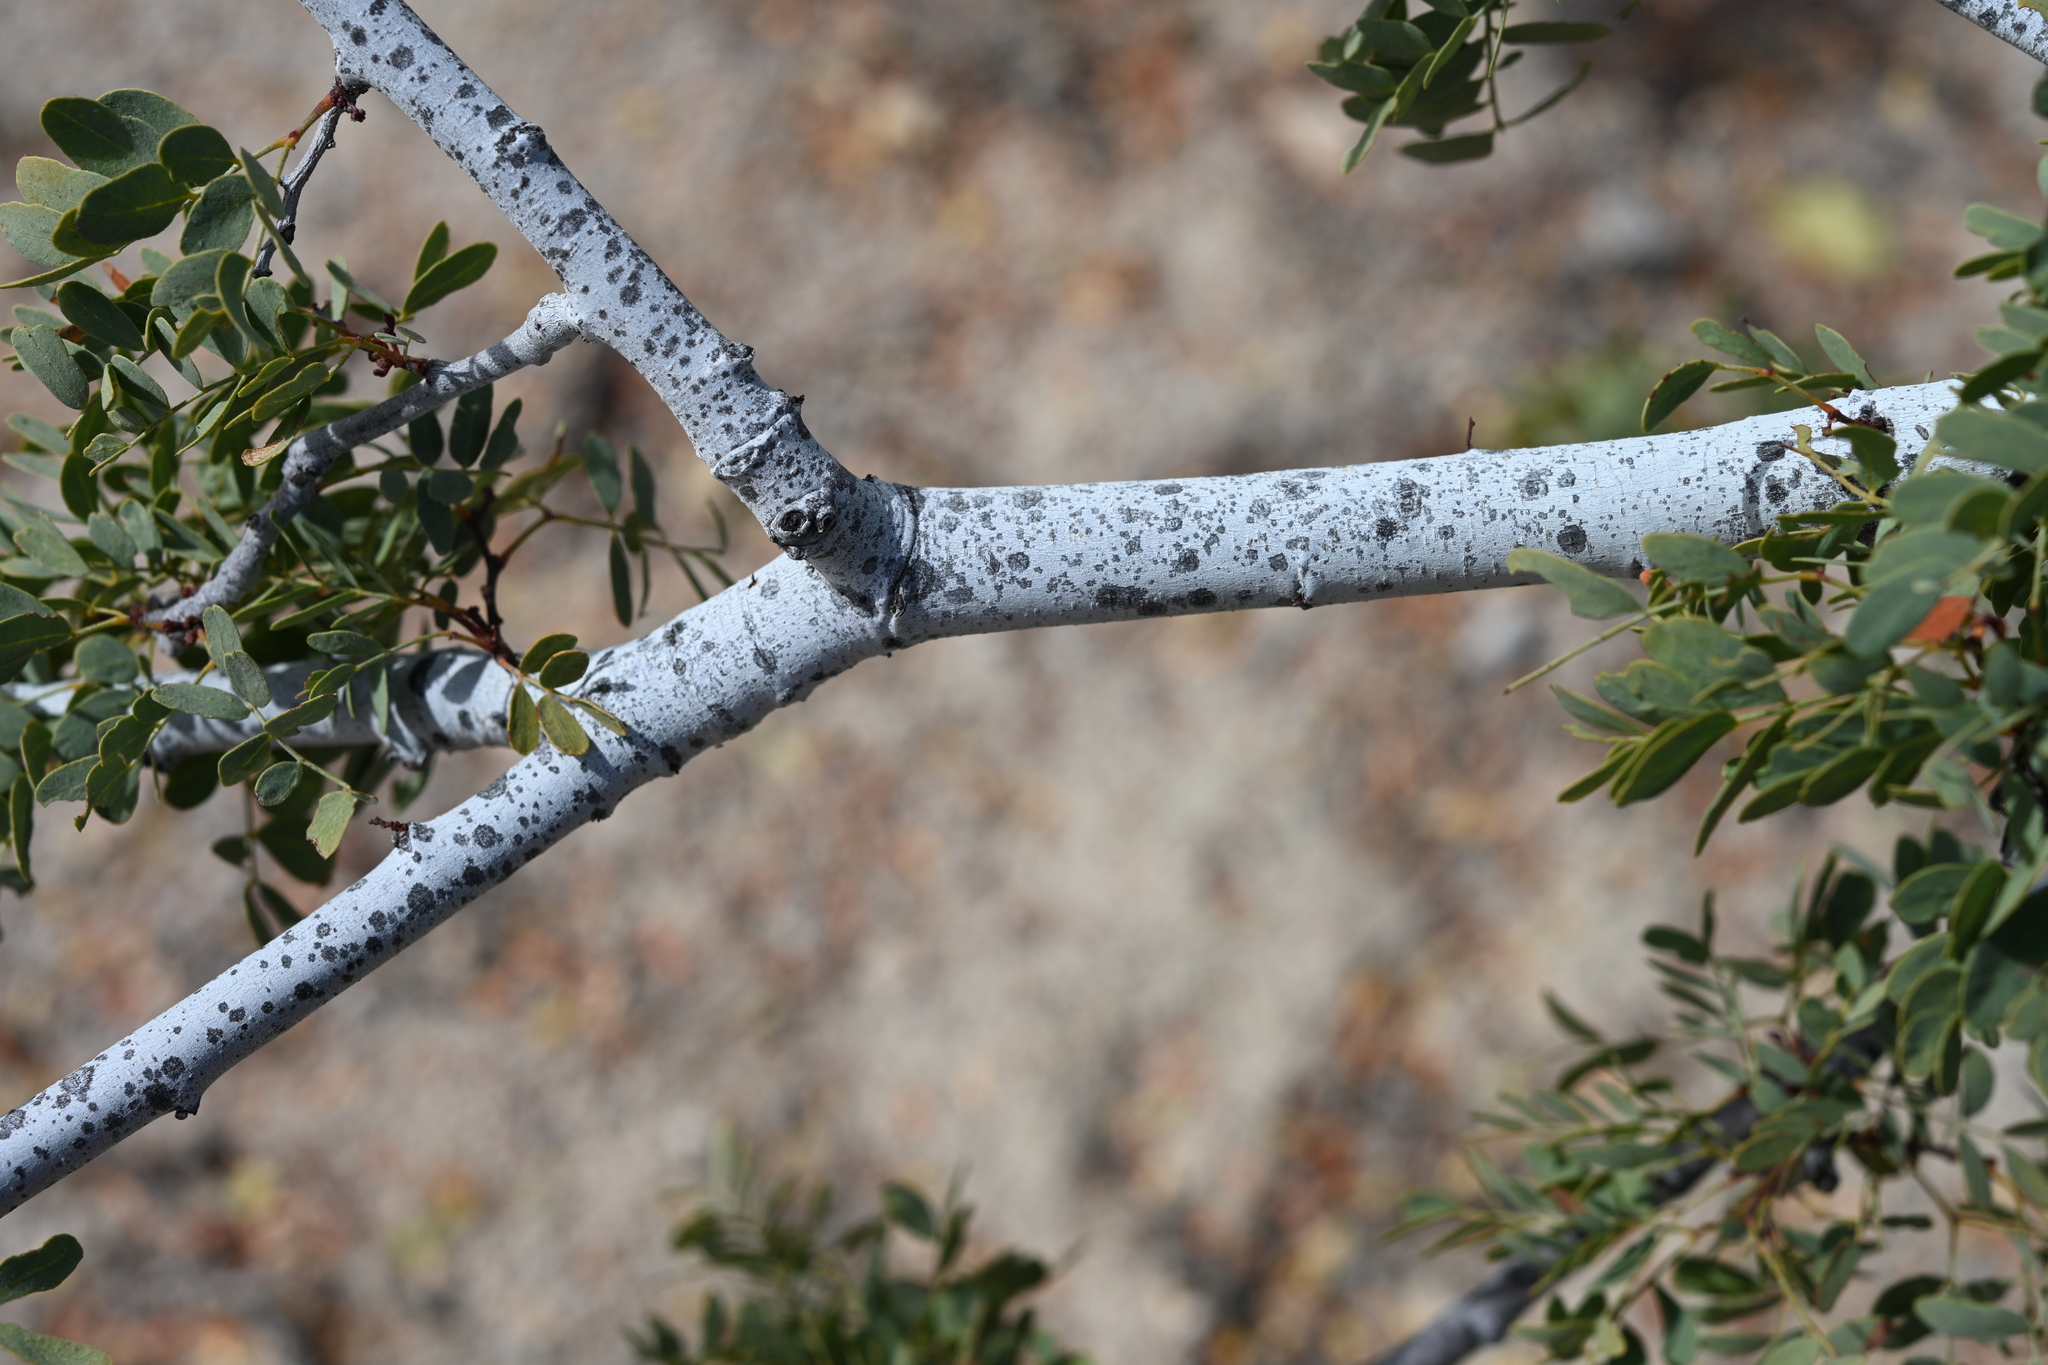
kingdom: Plantae
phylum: Tracheophyta
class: Magnoliopsida
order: Fabales
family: Fabaceae
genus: Lysiloma
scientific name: Lysiloma candidum
